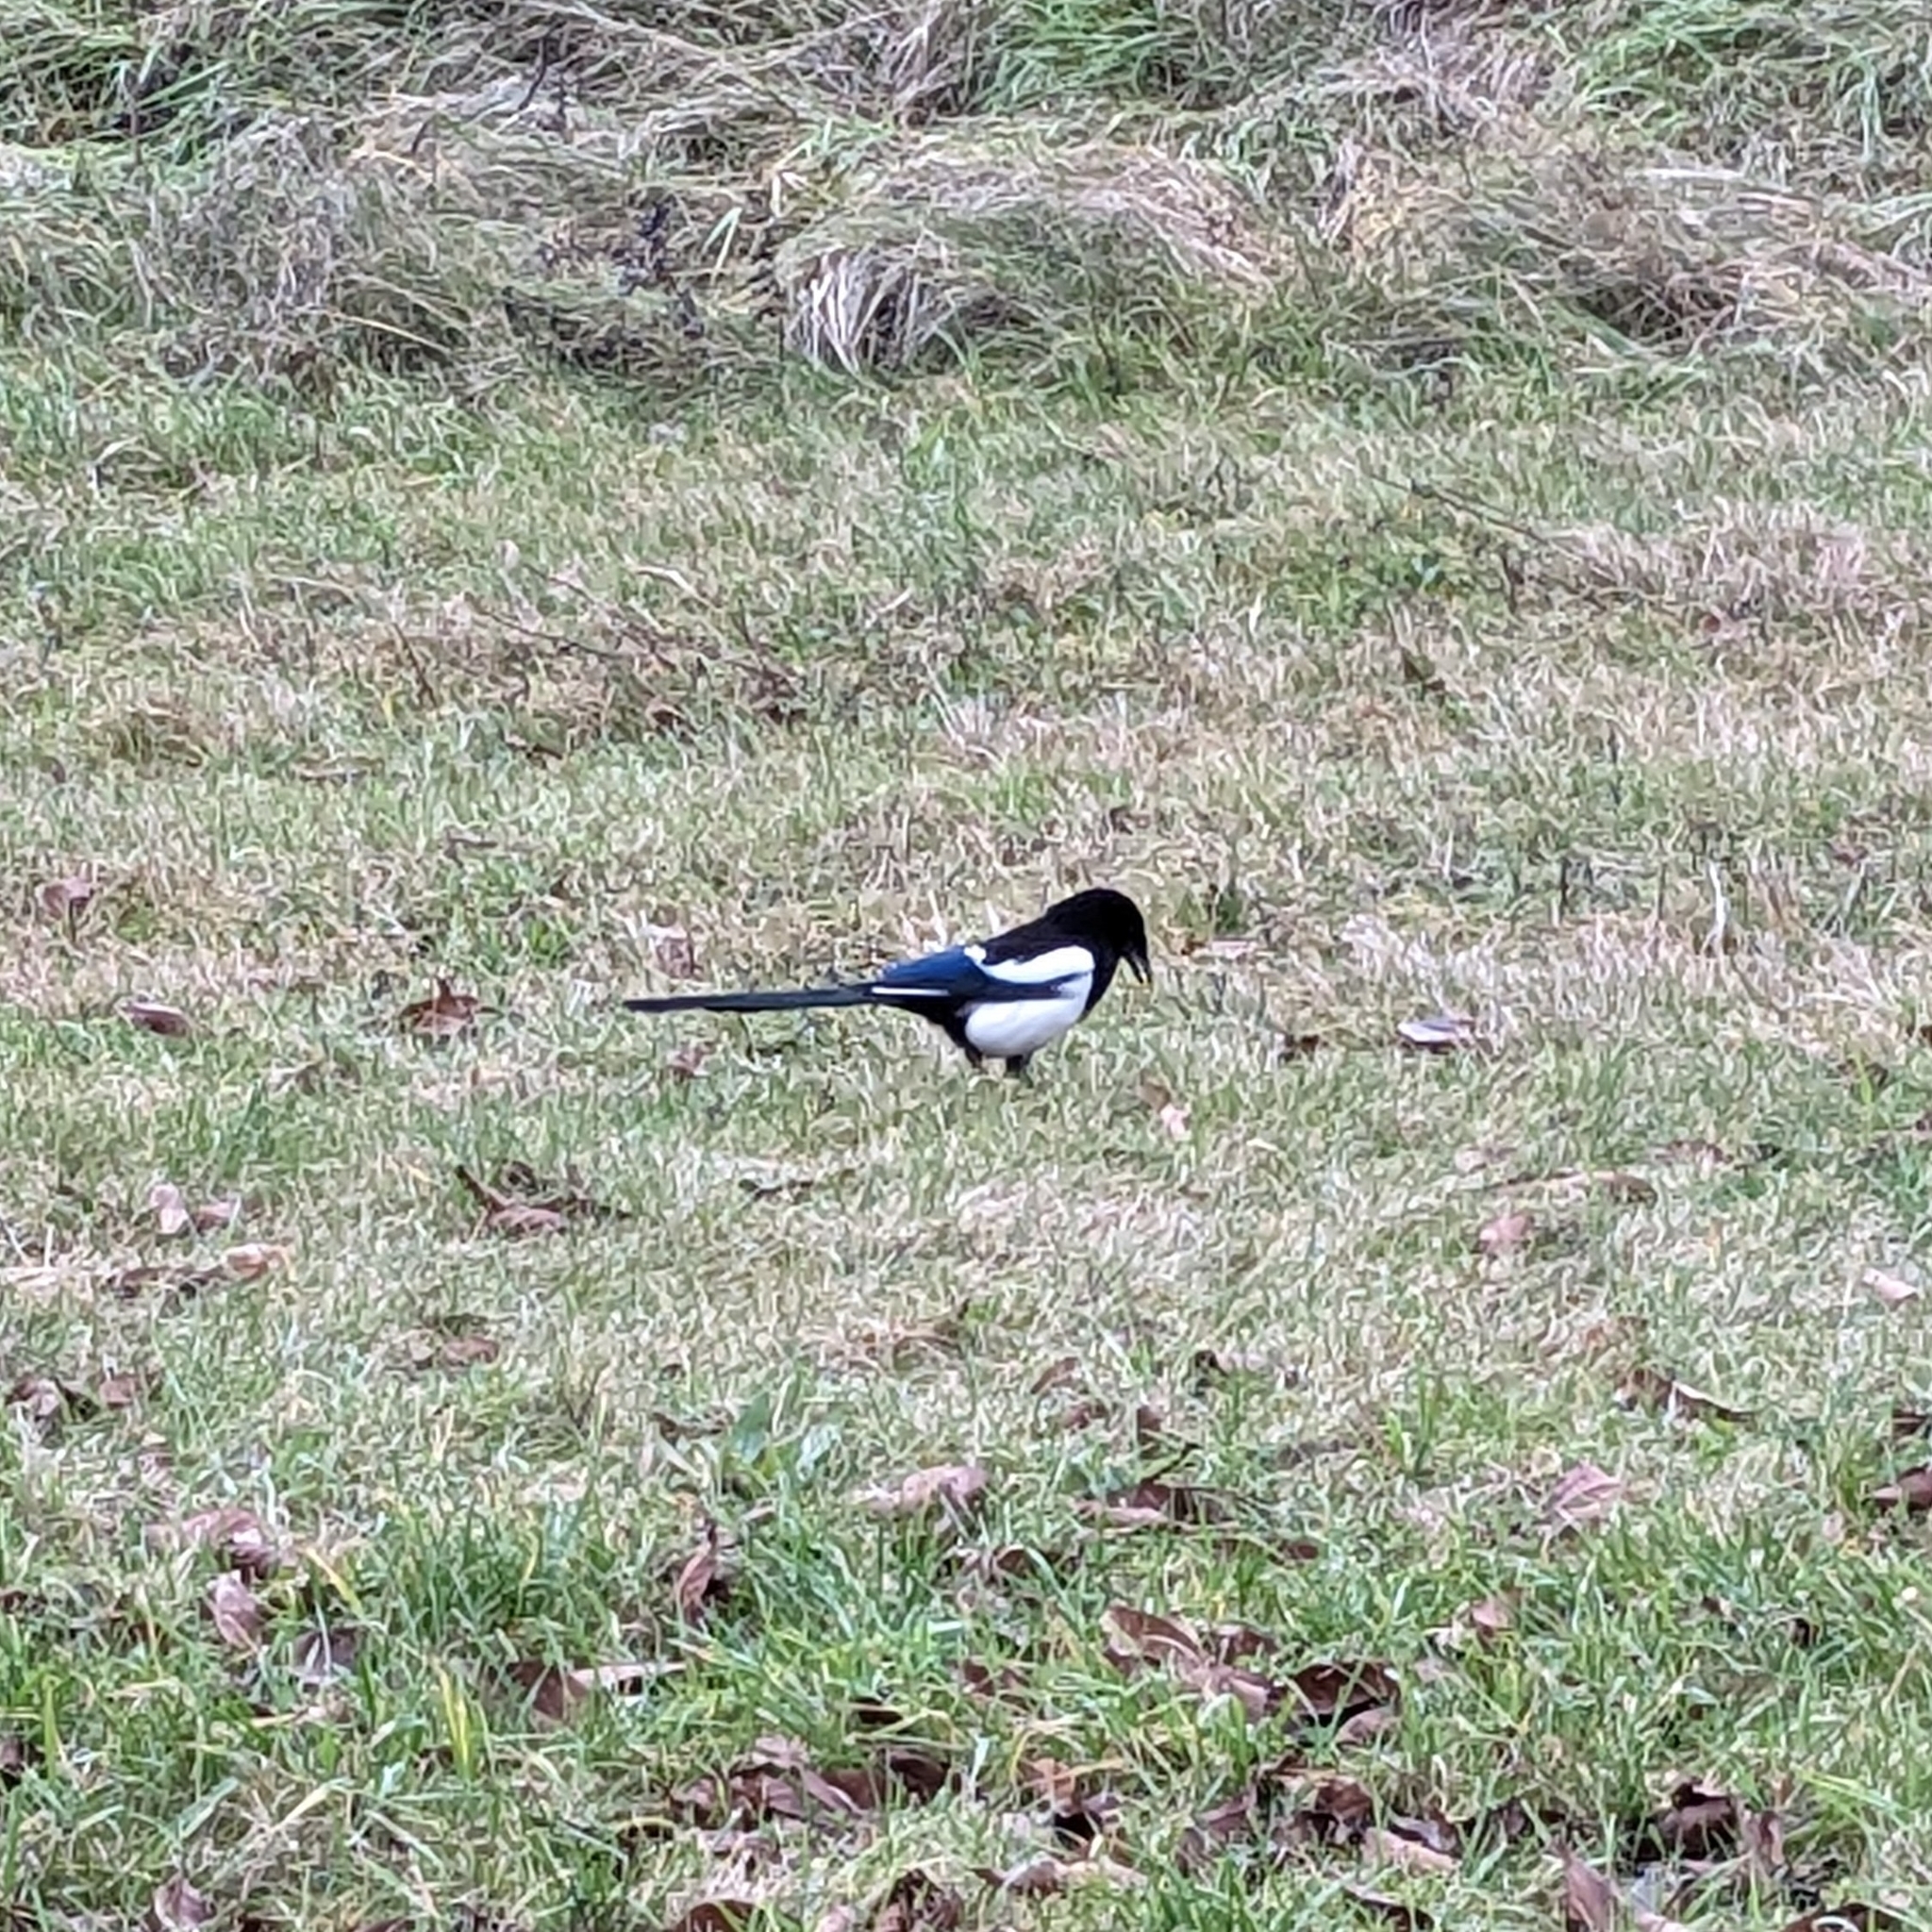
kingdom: Animalia
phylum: Chordata
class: Aves
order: Passeriformes
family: Corvidae
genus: Pica
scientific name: Pica pica
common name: Eurasian magpie
